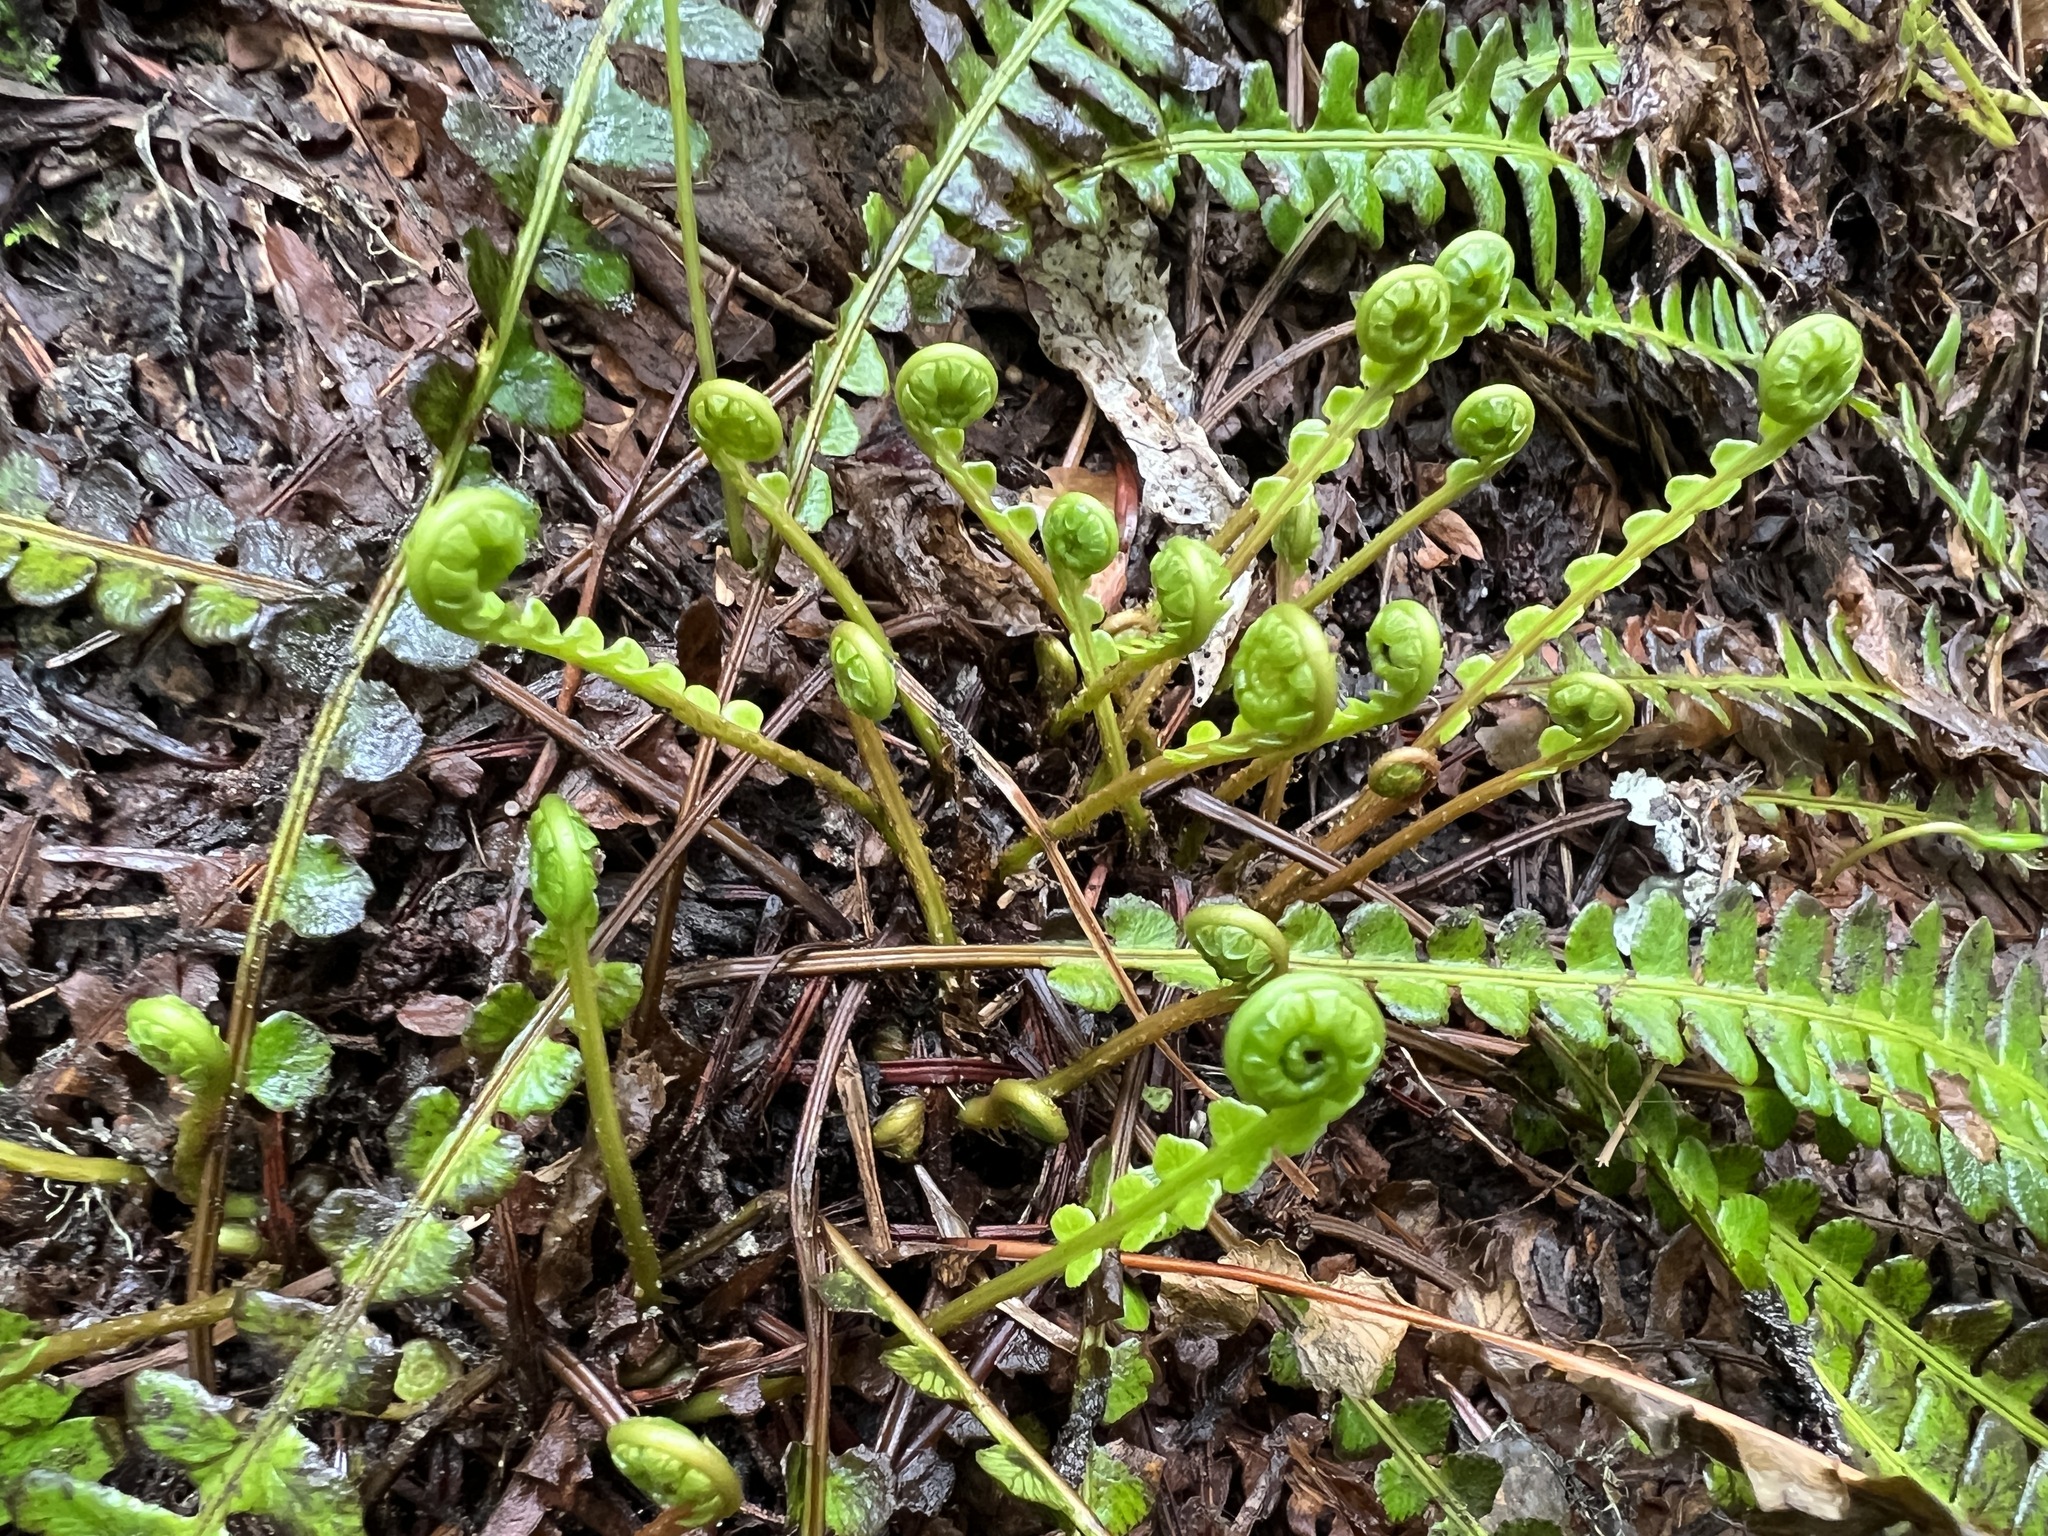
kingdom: Plantae
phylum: Tracheophyta
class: Polypodiopsida
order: Polypodiales
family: Blechnaceae
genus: Struthiopteris
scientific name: Struthiopteris spicant
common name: Deer fern
